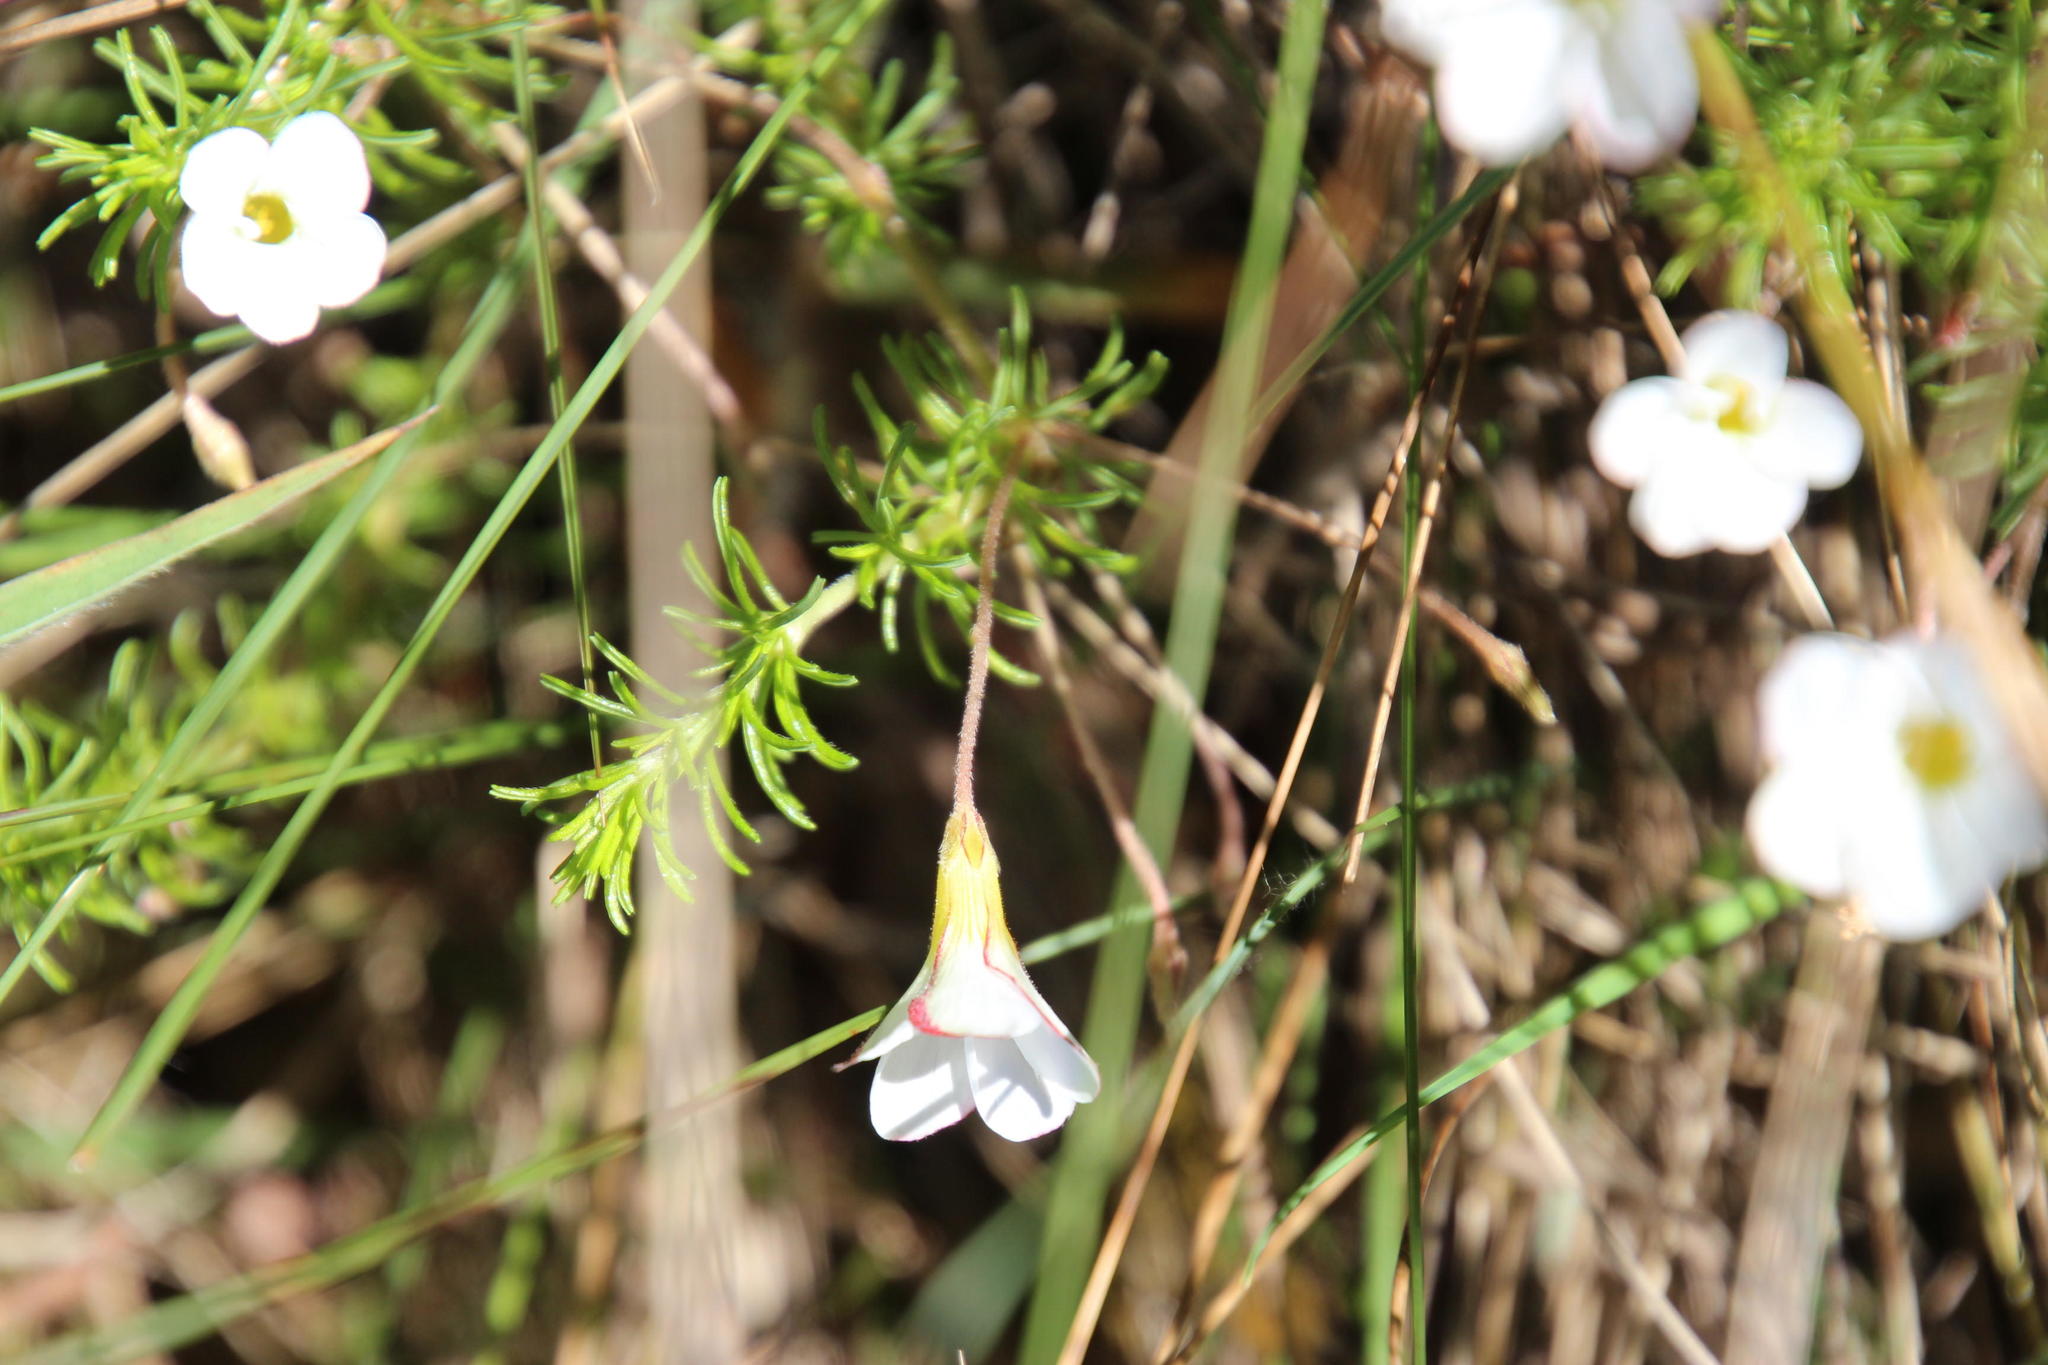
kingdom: Plantae
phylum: Tracheophyta
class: Magnoliopsida
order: Oxalidales
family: Oxalidaceae
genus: Oxalis
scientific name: Oxalis tenuifolia
